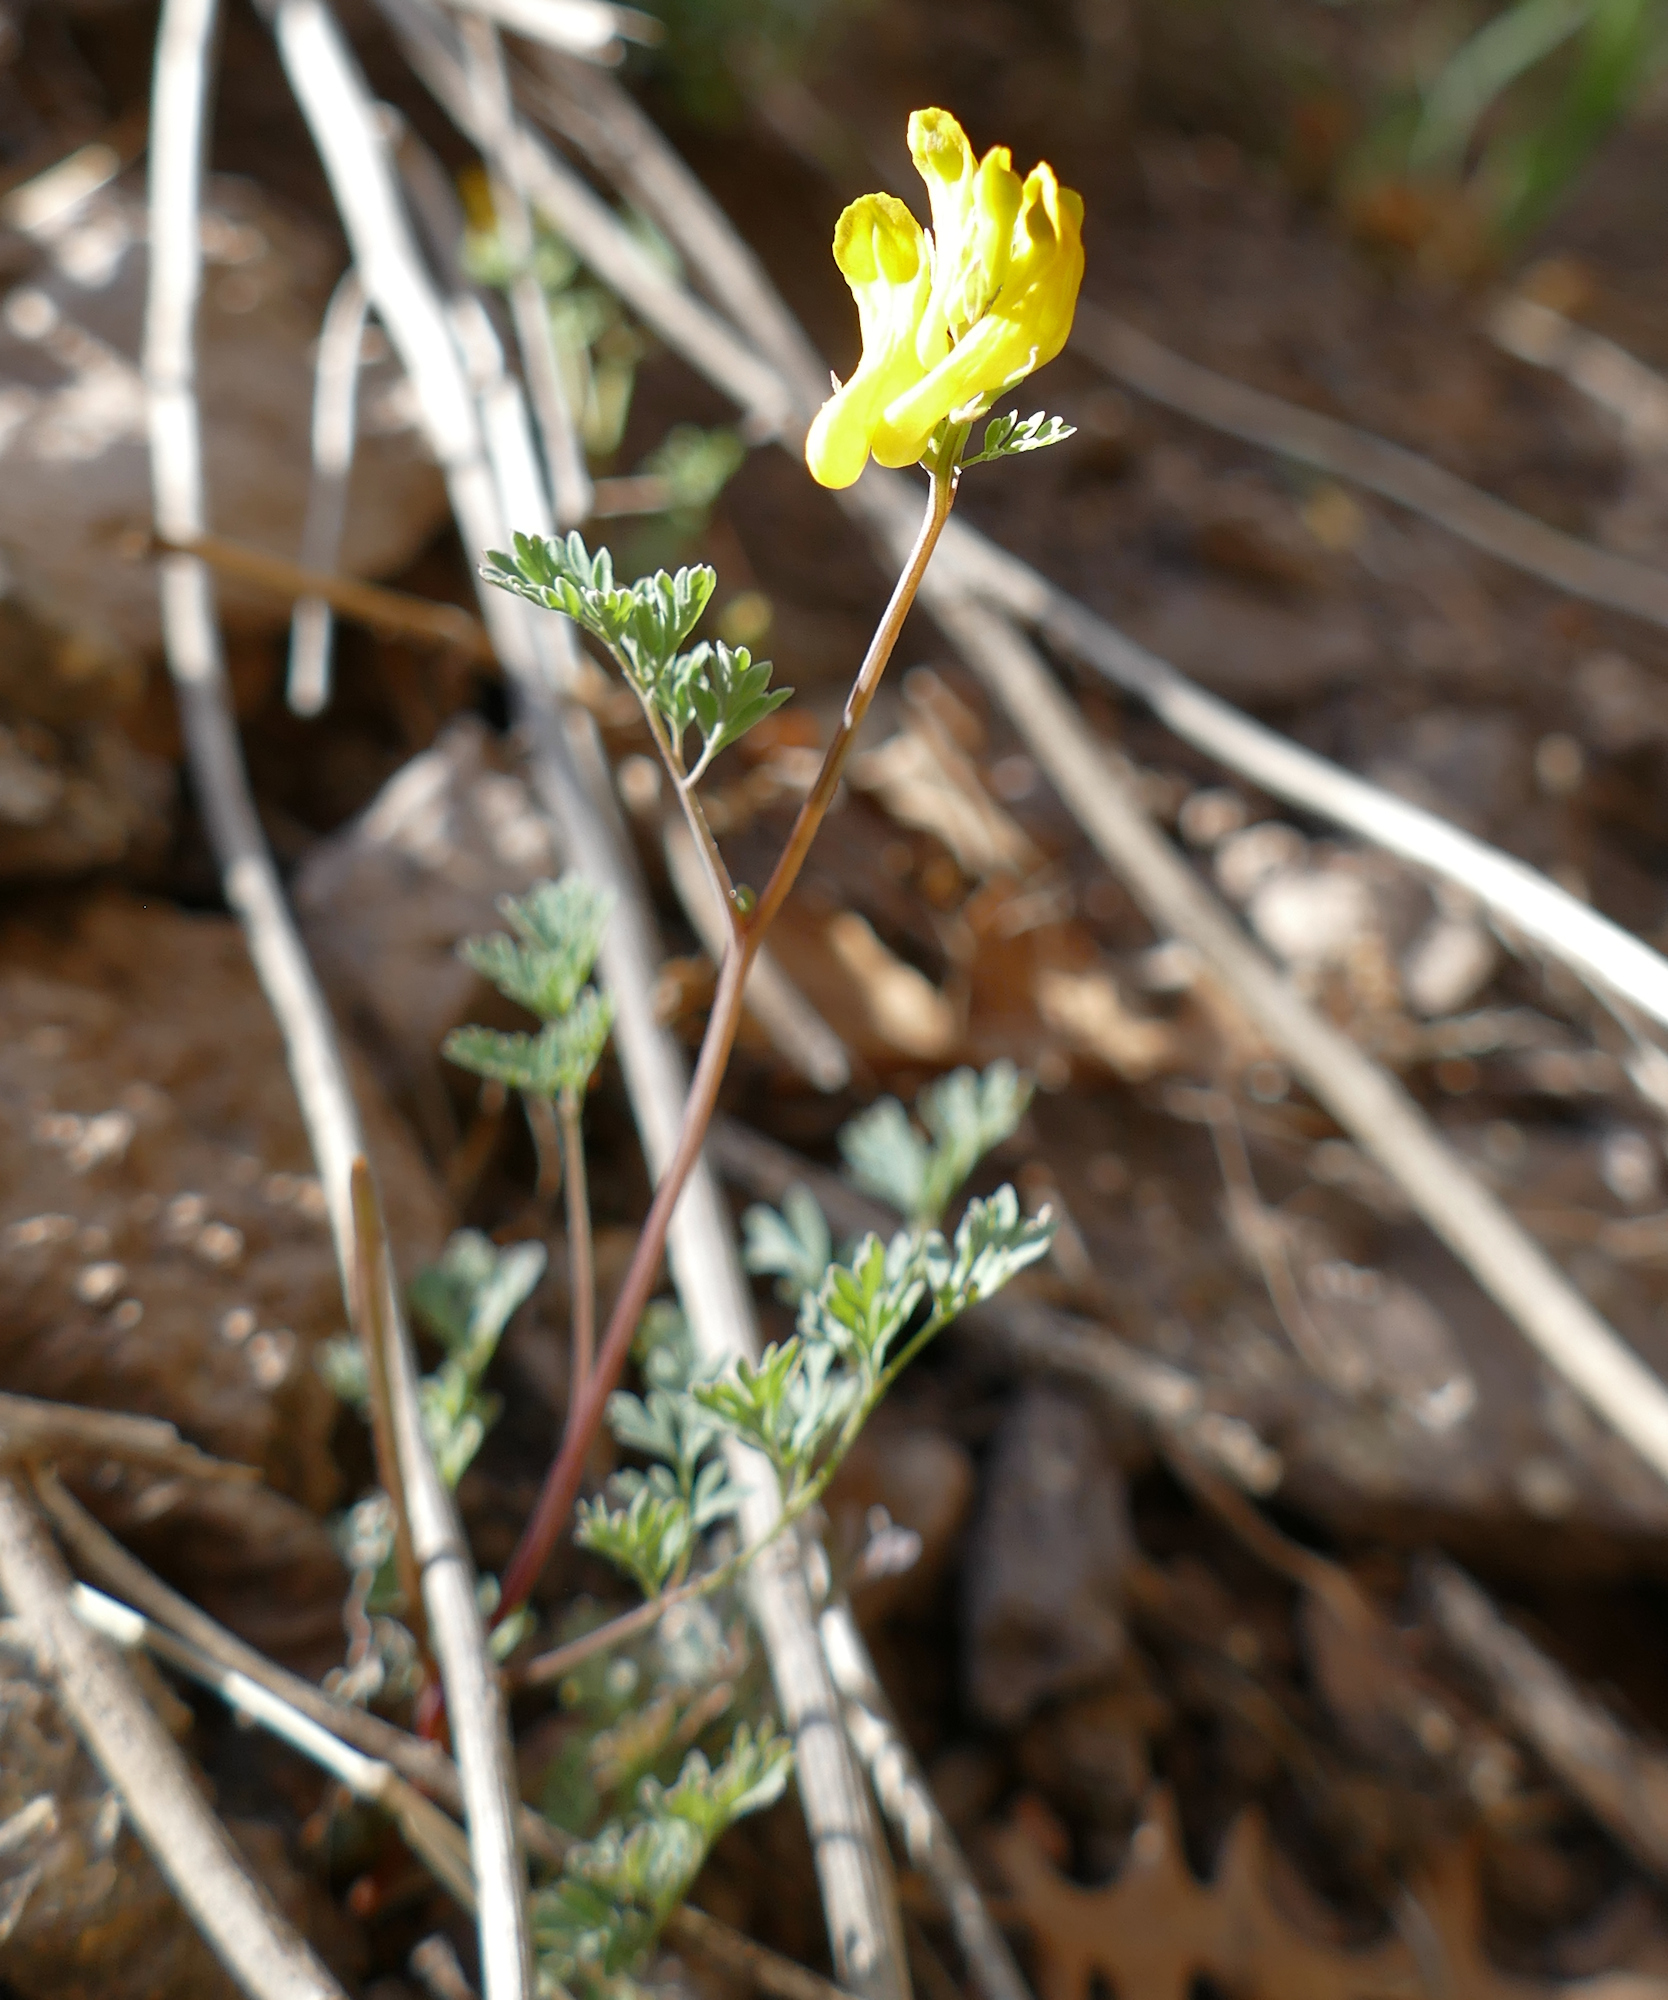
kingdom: Plantae
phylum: Tracheophyta
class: Magnoliopsida
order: Ranunculales
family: Papaveraceae
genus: Corydalis
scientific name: Corydalis aurea
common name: Golden corydalis
